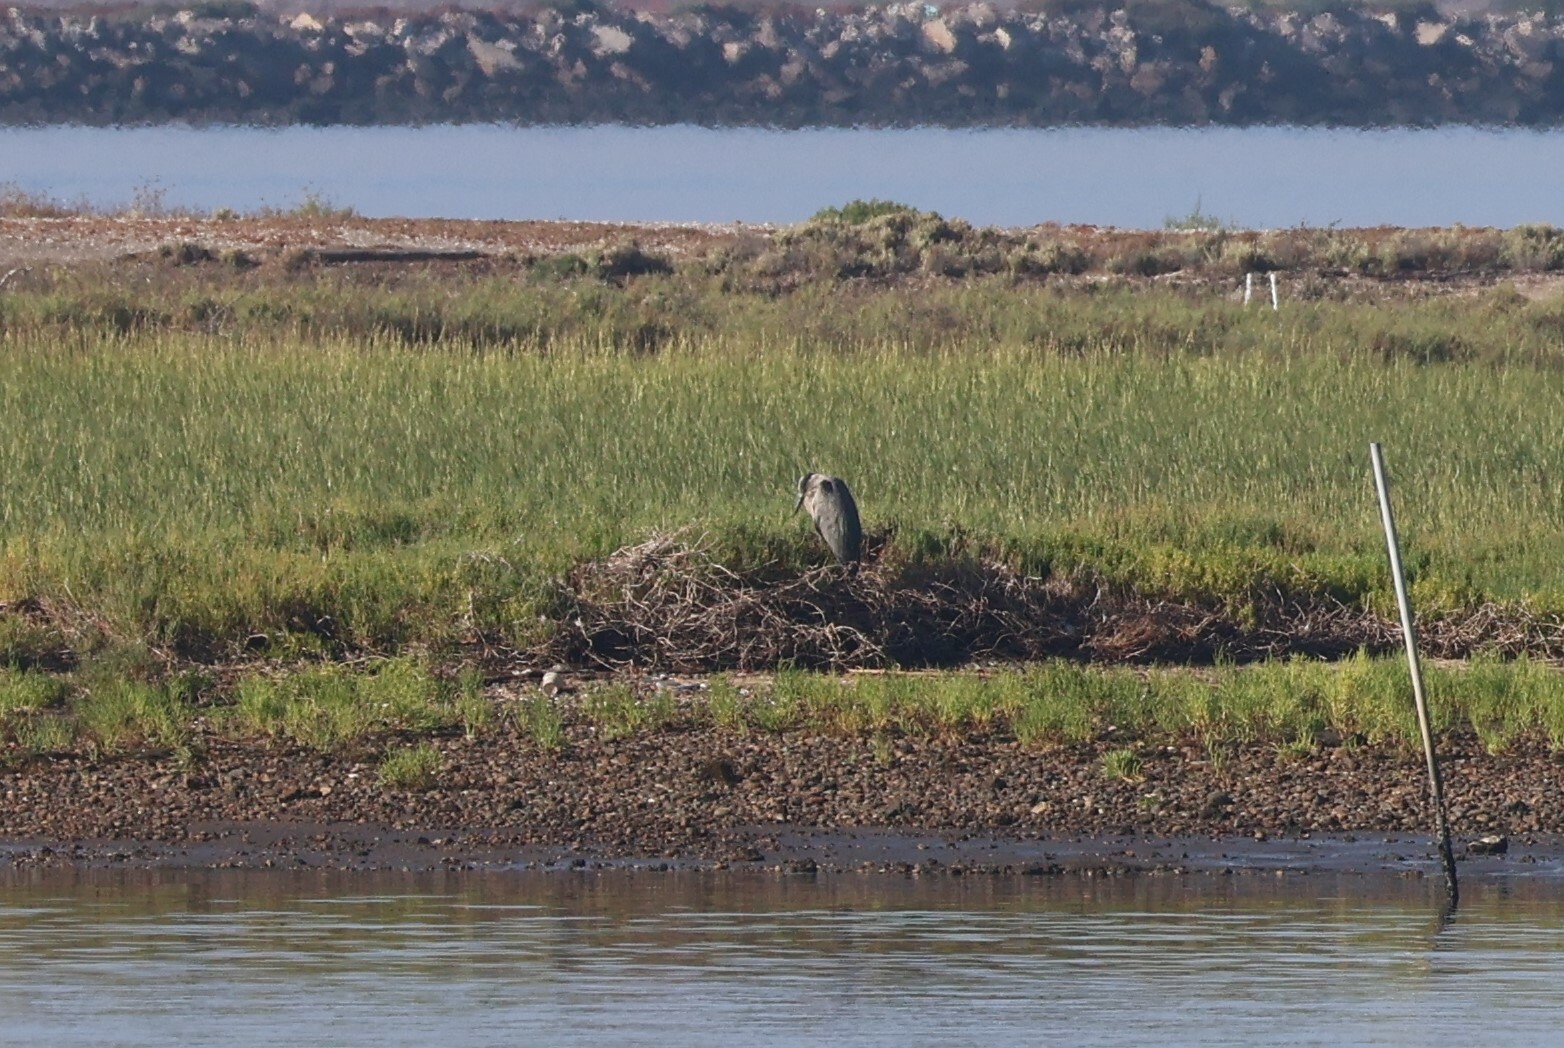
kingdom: Animalia
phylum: Chordata
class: Aves
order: Pelecaniformes
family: Ardeidae
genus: Ardea
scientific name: Ardea herodias
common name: Great blue heron
